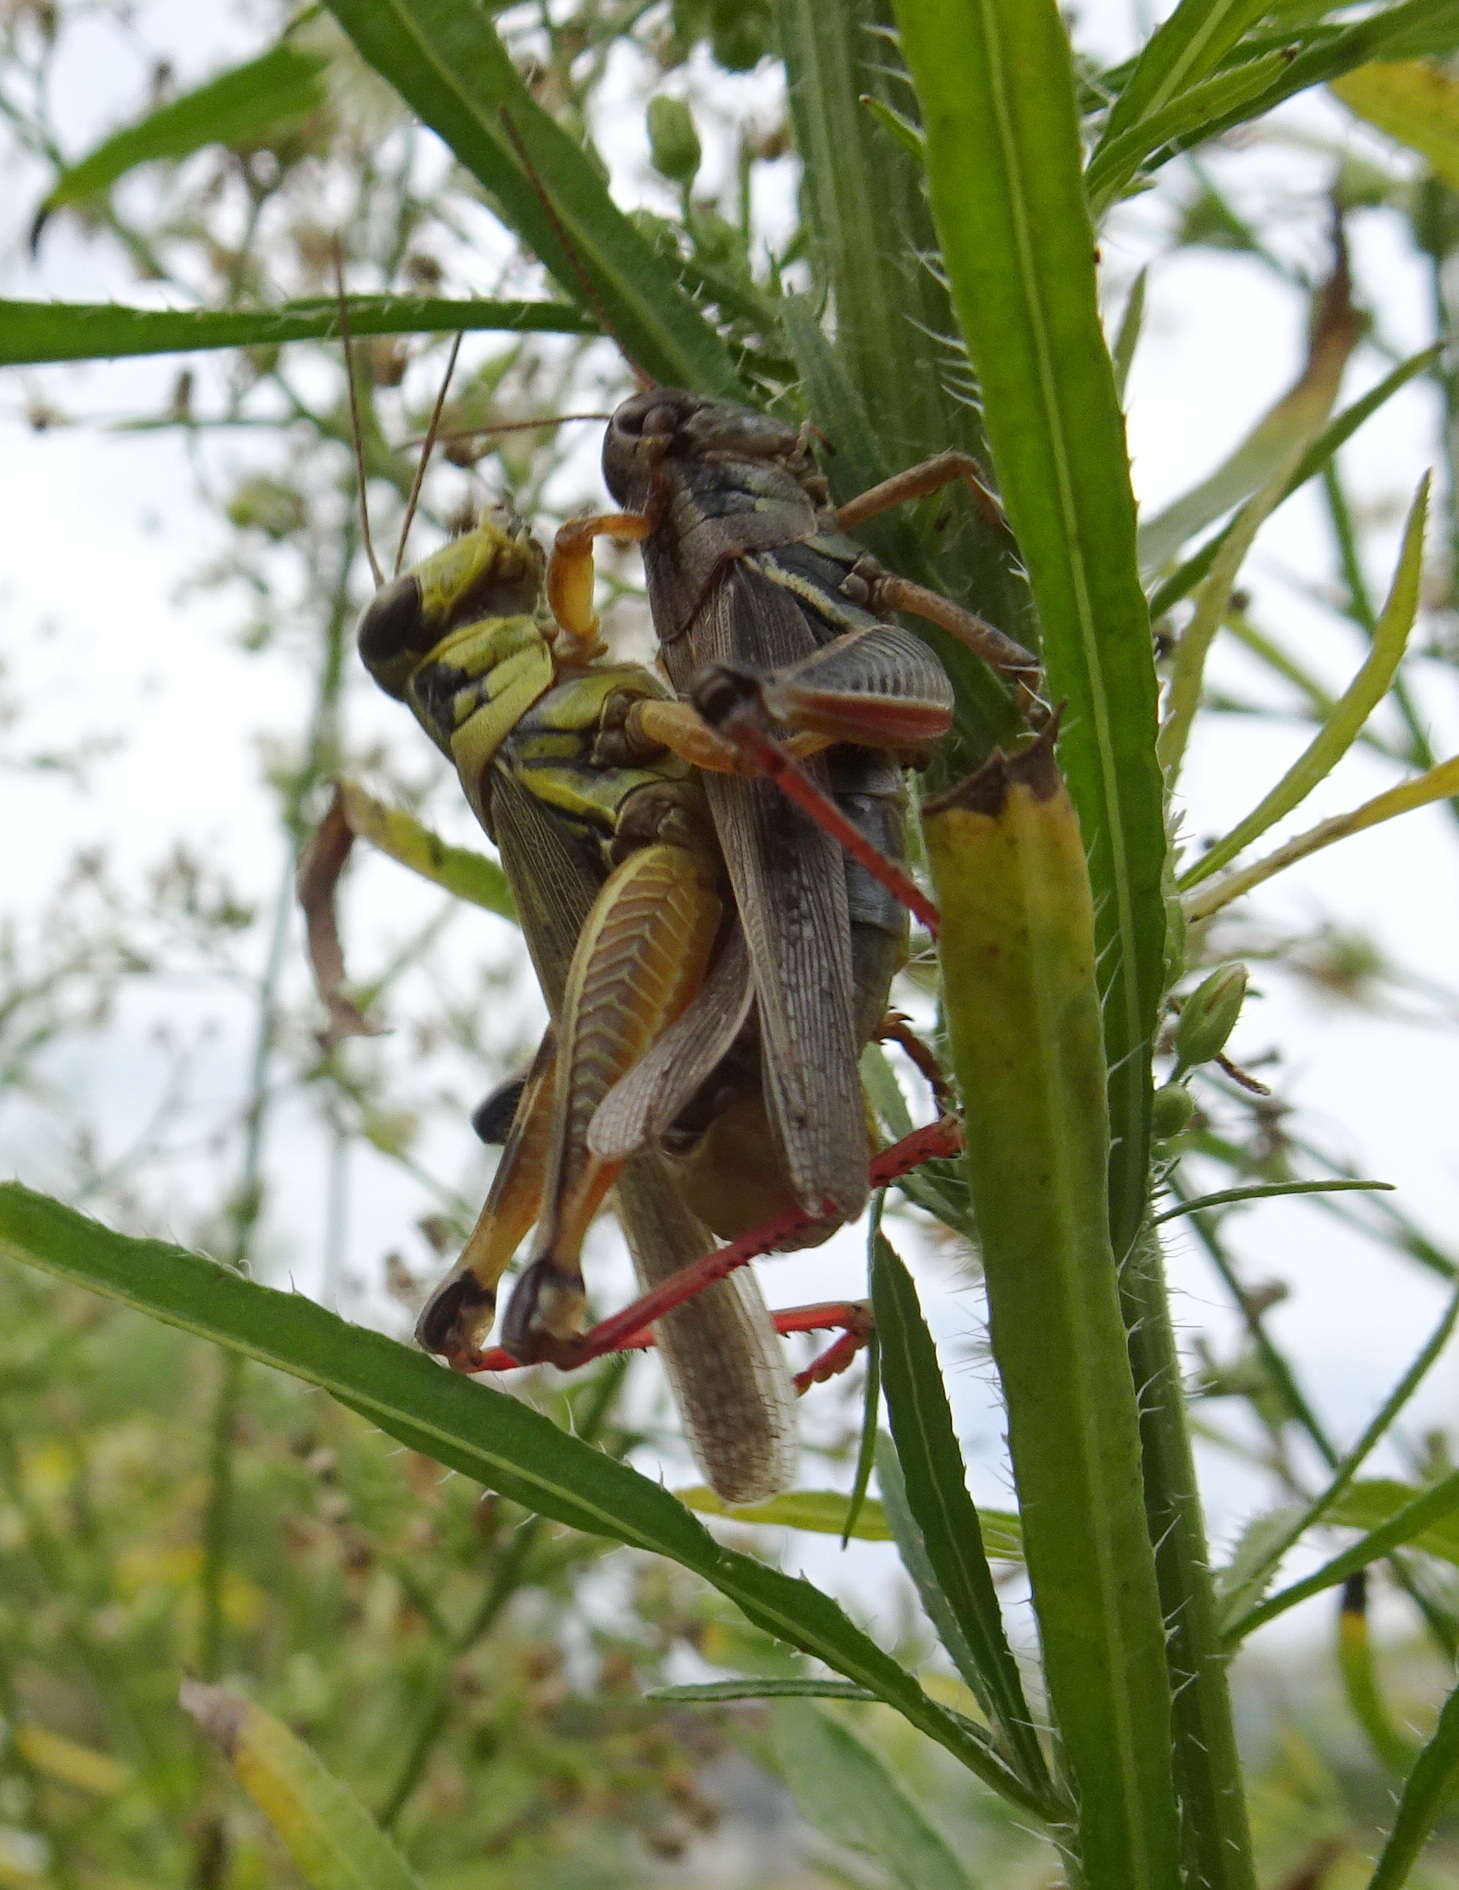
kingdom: Animalia
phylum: Arthropoda
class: Insecta
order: Orthoptera
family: Acrididae
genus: Melanoplus
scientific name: Melanoplus femurrubrum
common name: Red-legged grasshopper
